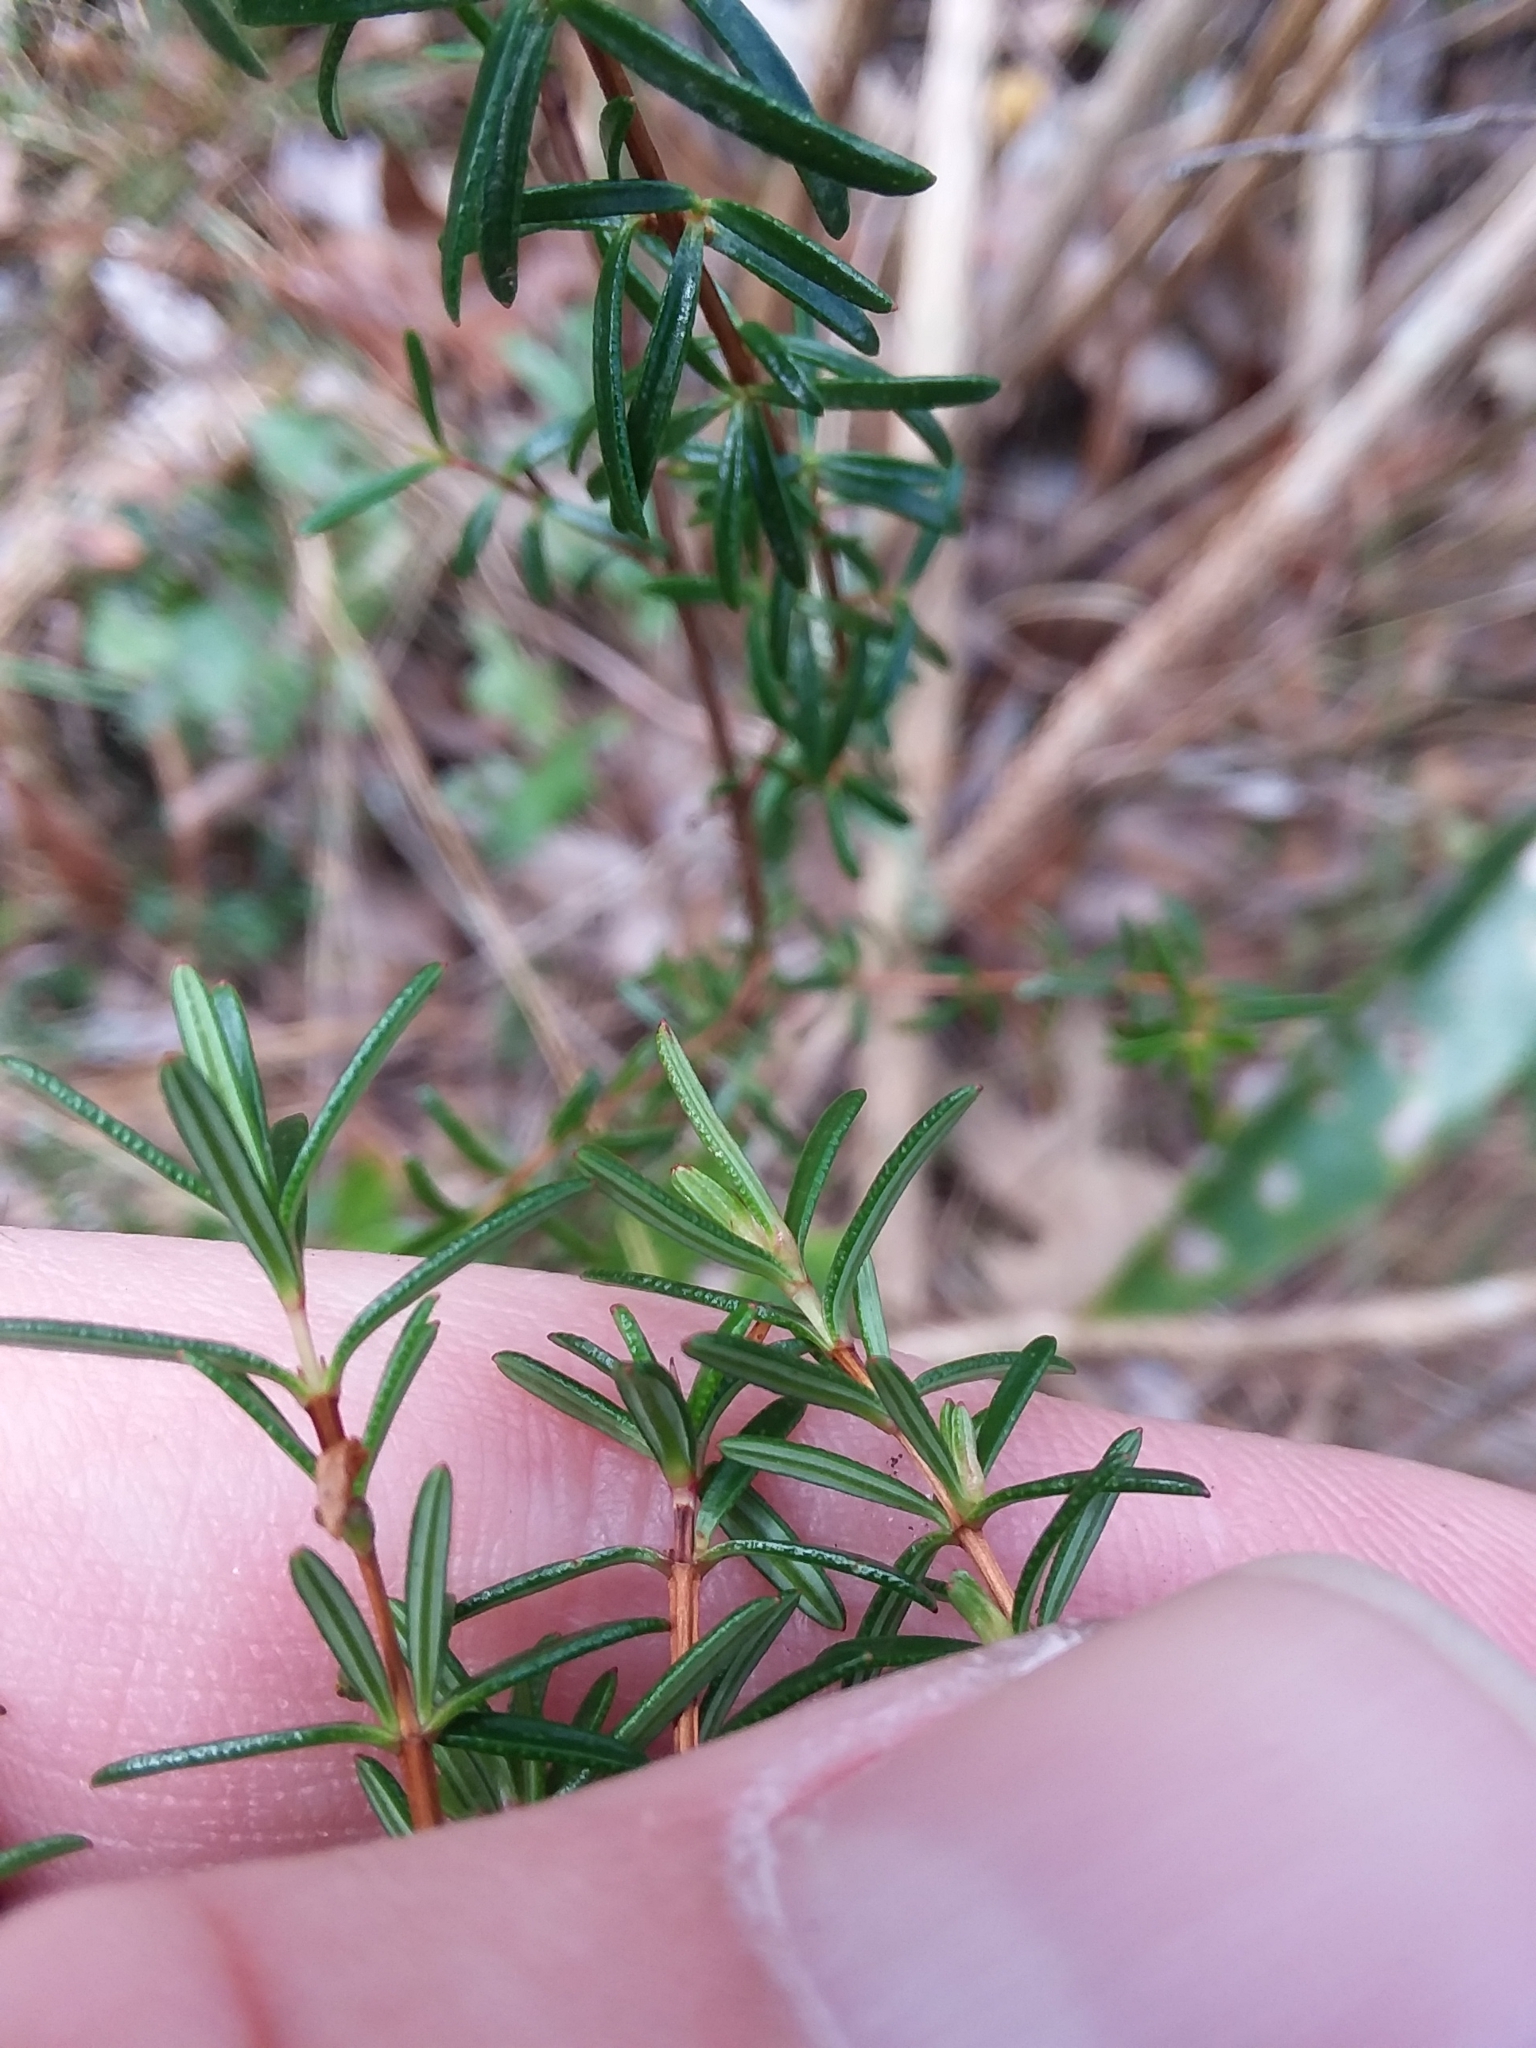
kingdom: Plantae
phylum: Tracheophyta
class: Magnoliopsida
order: Malpighiales
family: Hypericaceae
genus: Hypericum
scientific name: Hypericum brachyphyllum
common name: Coastal plain st. john's-wort
